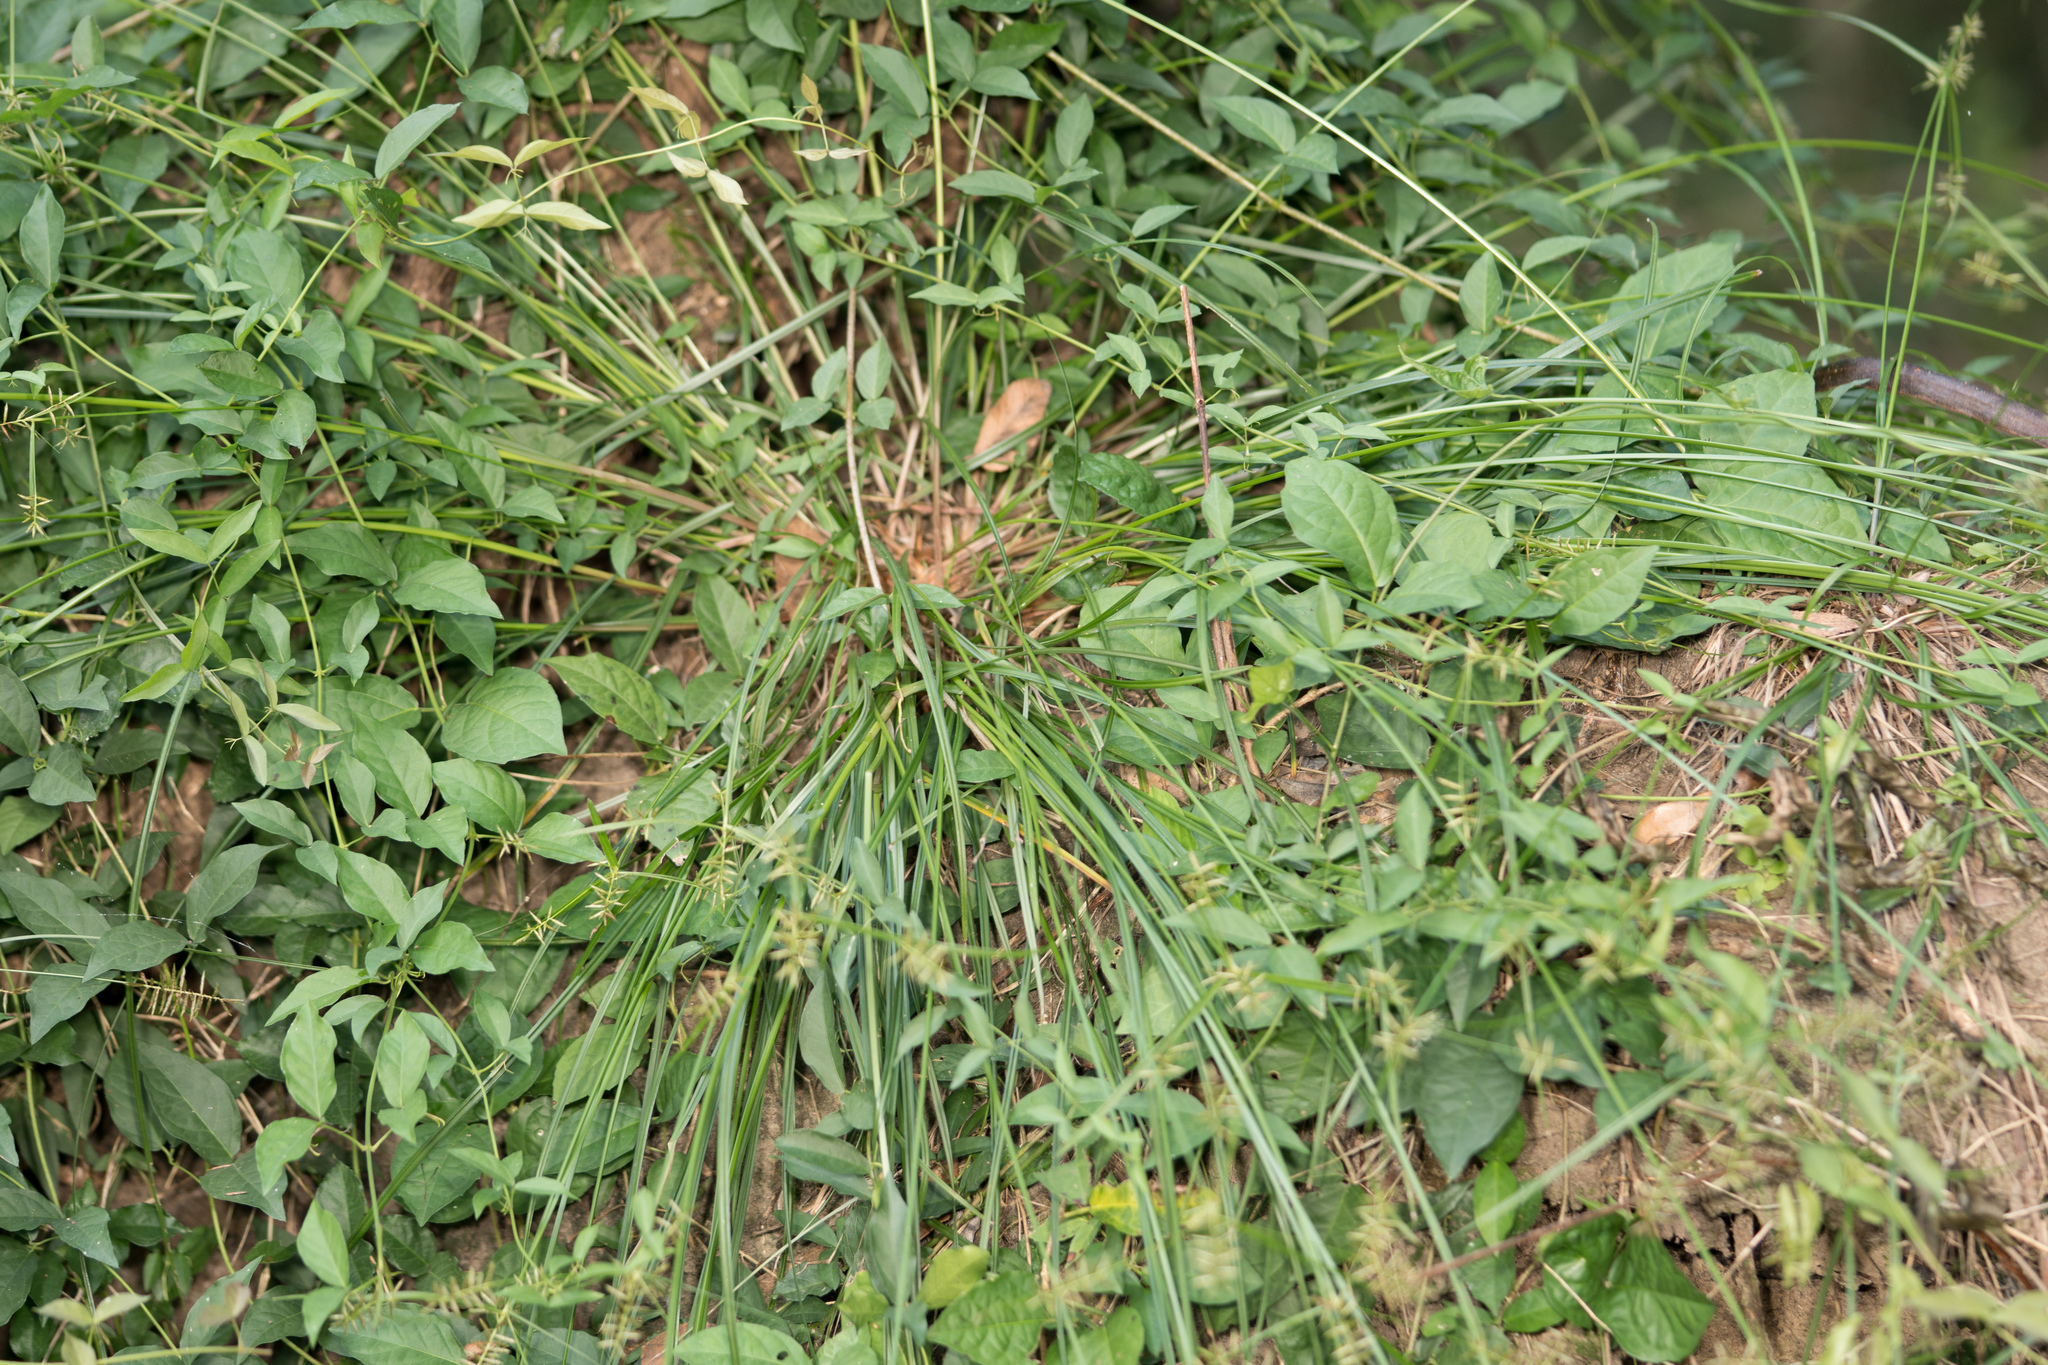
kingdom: Plantae
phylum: Tracheophyta
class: Liliopsida
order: Poales
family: Cyperaceae
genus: Cyperus
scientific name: Cyperus thyrsiflorus
